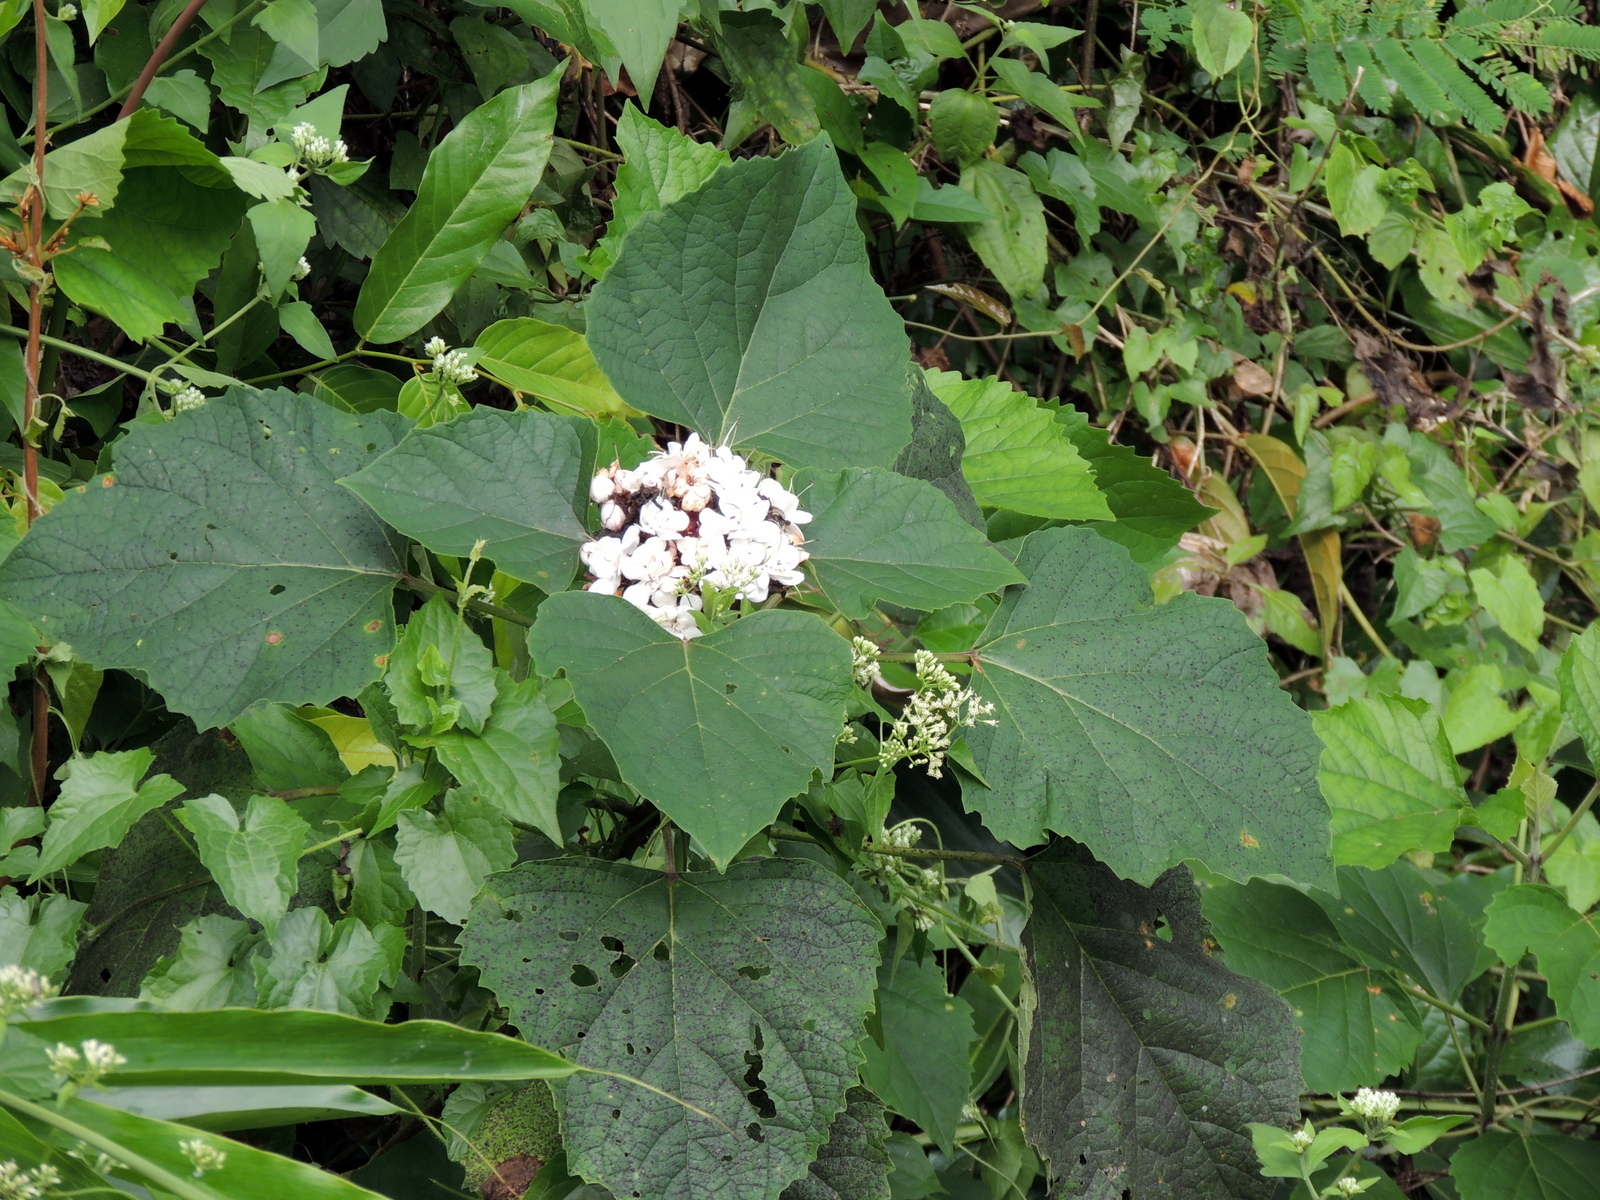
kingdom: Plantae
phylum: Tracheophyta
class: Magnoliopsida
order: Lamiales
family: Lamiaceae
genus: Clerodendrum
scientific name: Clerodendrum chinense
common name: Stickbush
